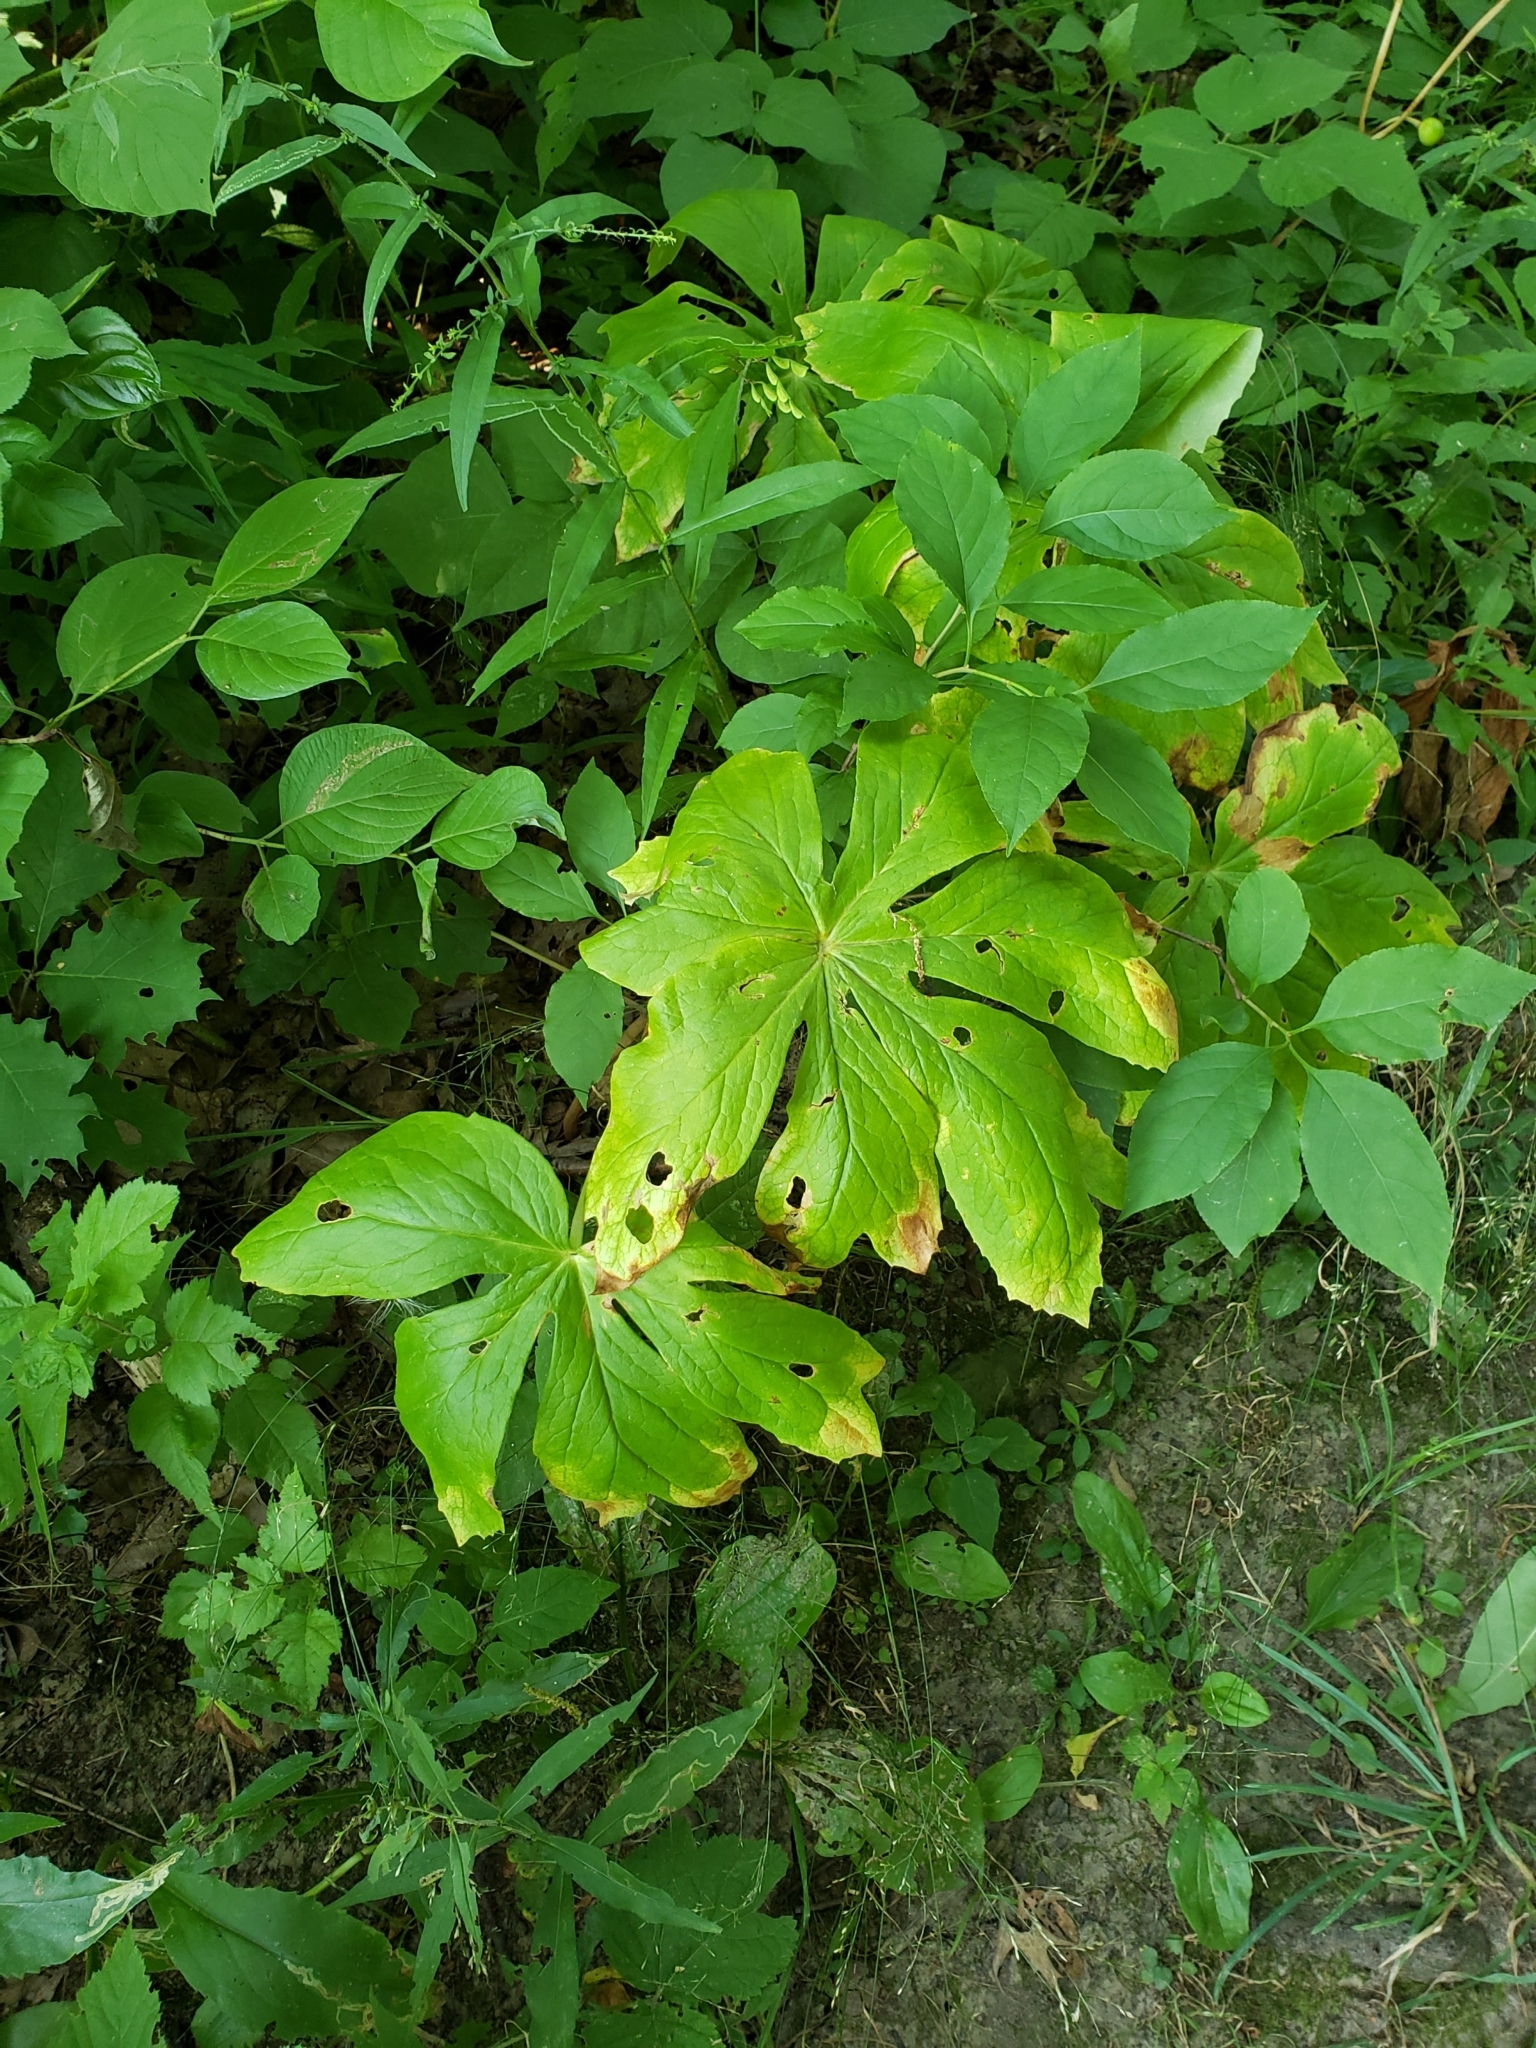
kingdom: Plantae
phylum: Tracheophyta
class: Magnoliopsida
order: Ranunculales
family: Berberidaceae
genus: Podophyllum
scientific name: Podophyllum peltatum
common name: Wild mandrake
